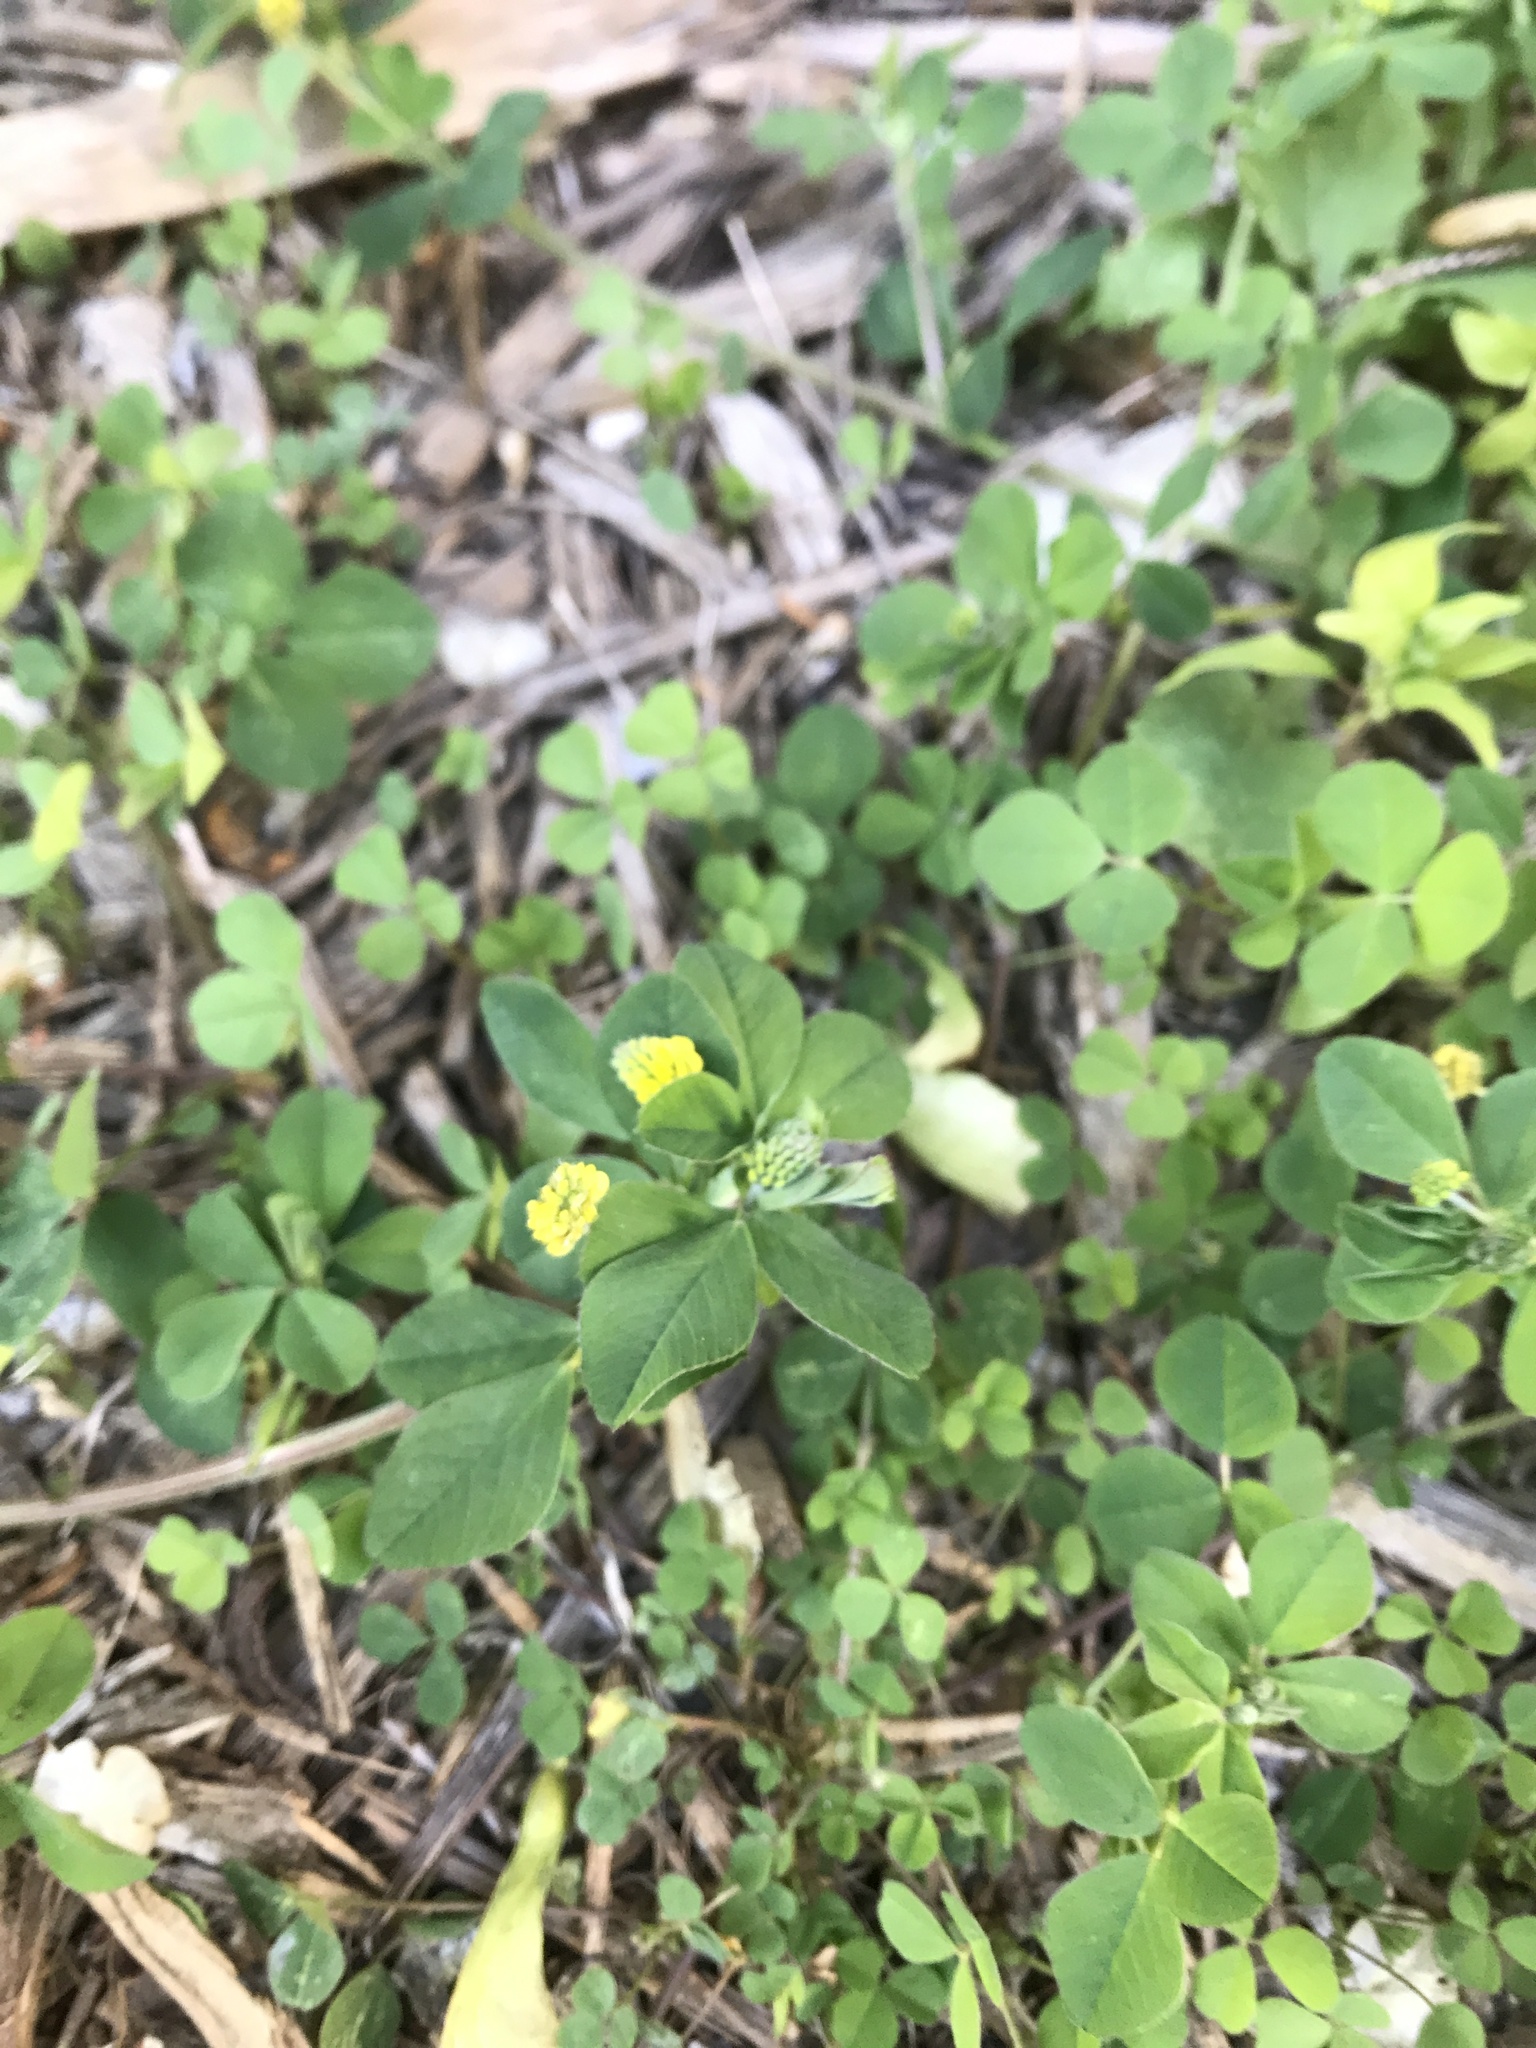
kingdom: Plantae
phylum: Tracheophyta
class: Magnoliopsida
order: Fabales
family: Fabaceae
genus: Medicago
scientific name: Medicago lupulina
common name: Black medick
